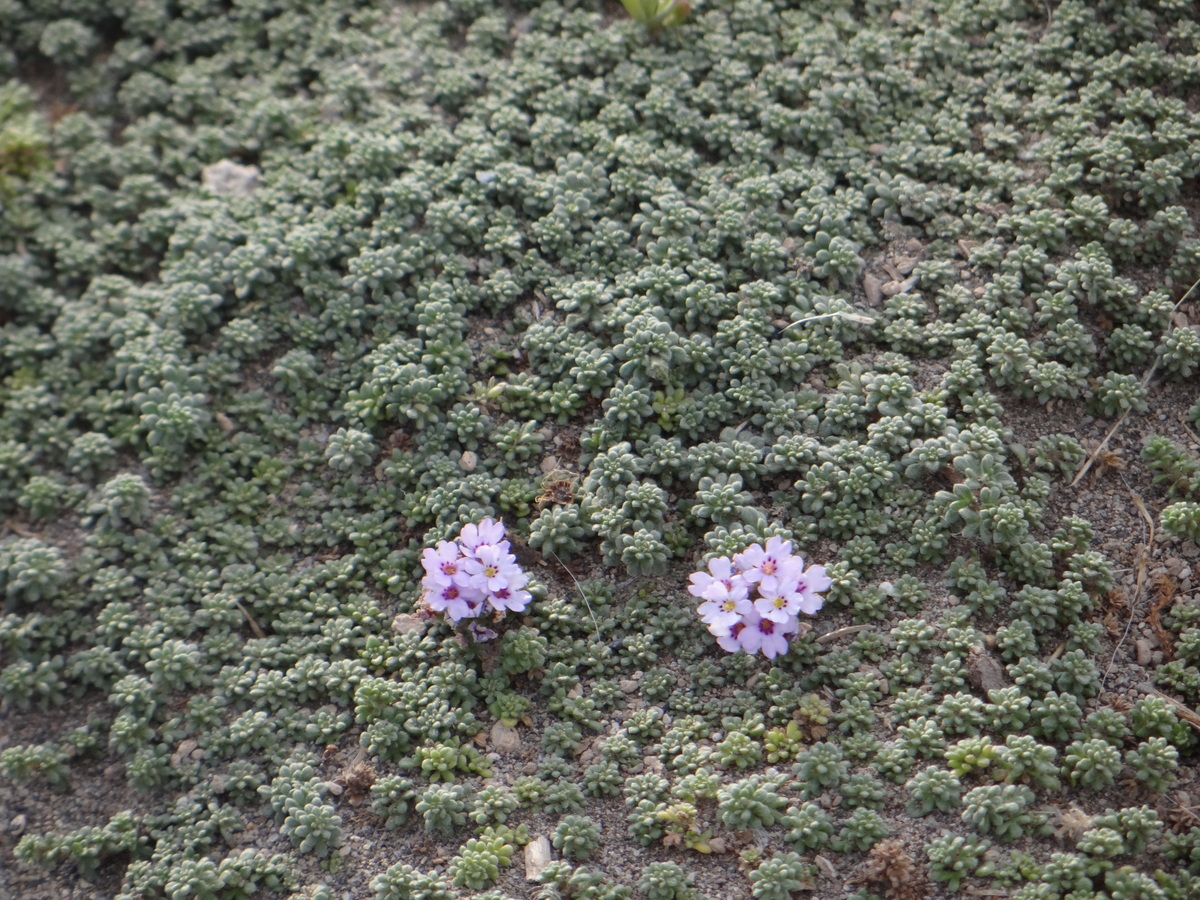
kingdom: Plantae
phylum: Tracheophyta
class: Magnoliopsida
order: Lamiales
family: Verbenaceae
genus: Junellia
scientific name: Junellia micrantha
